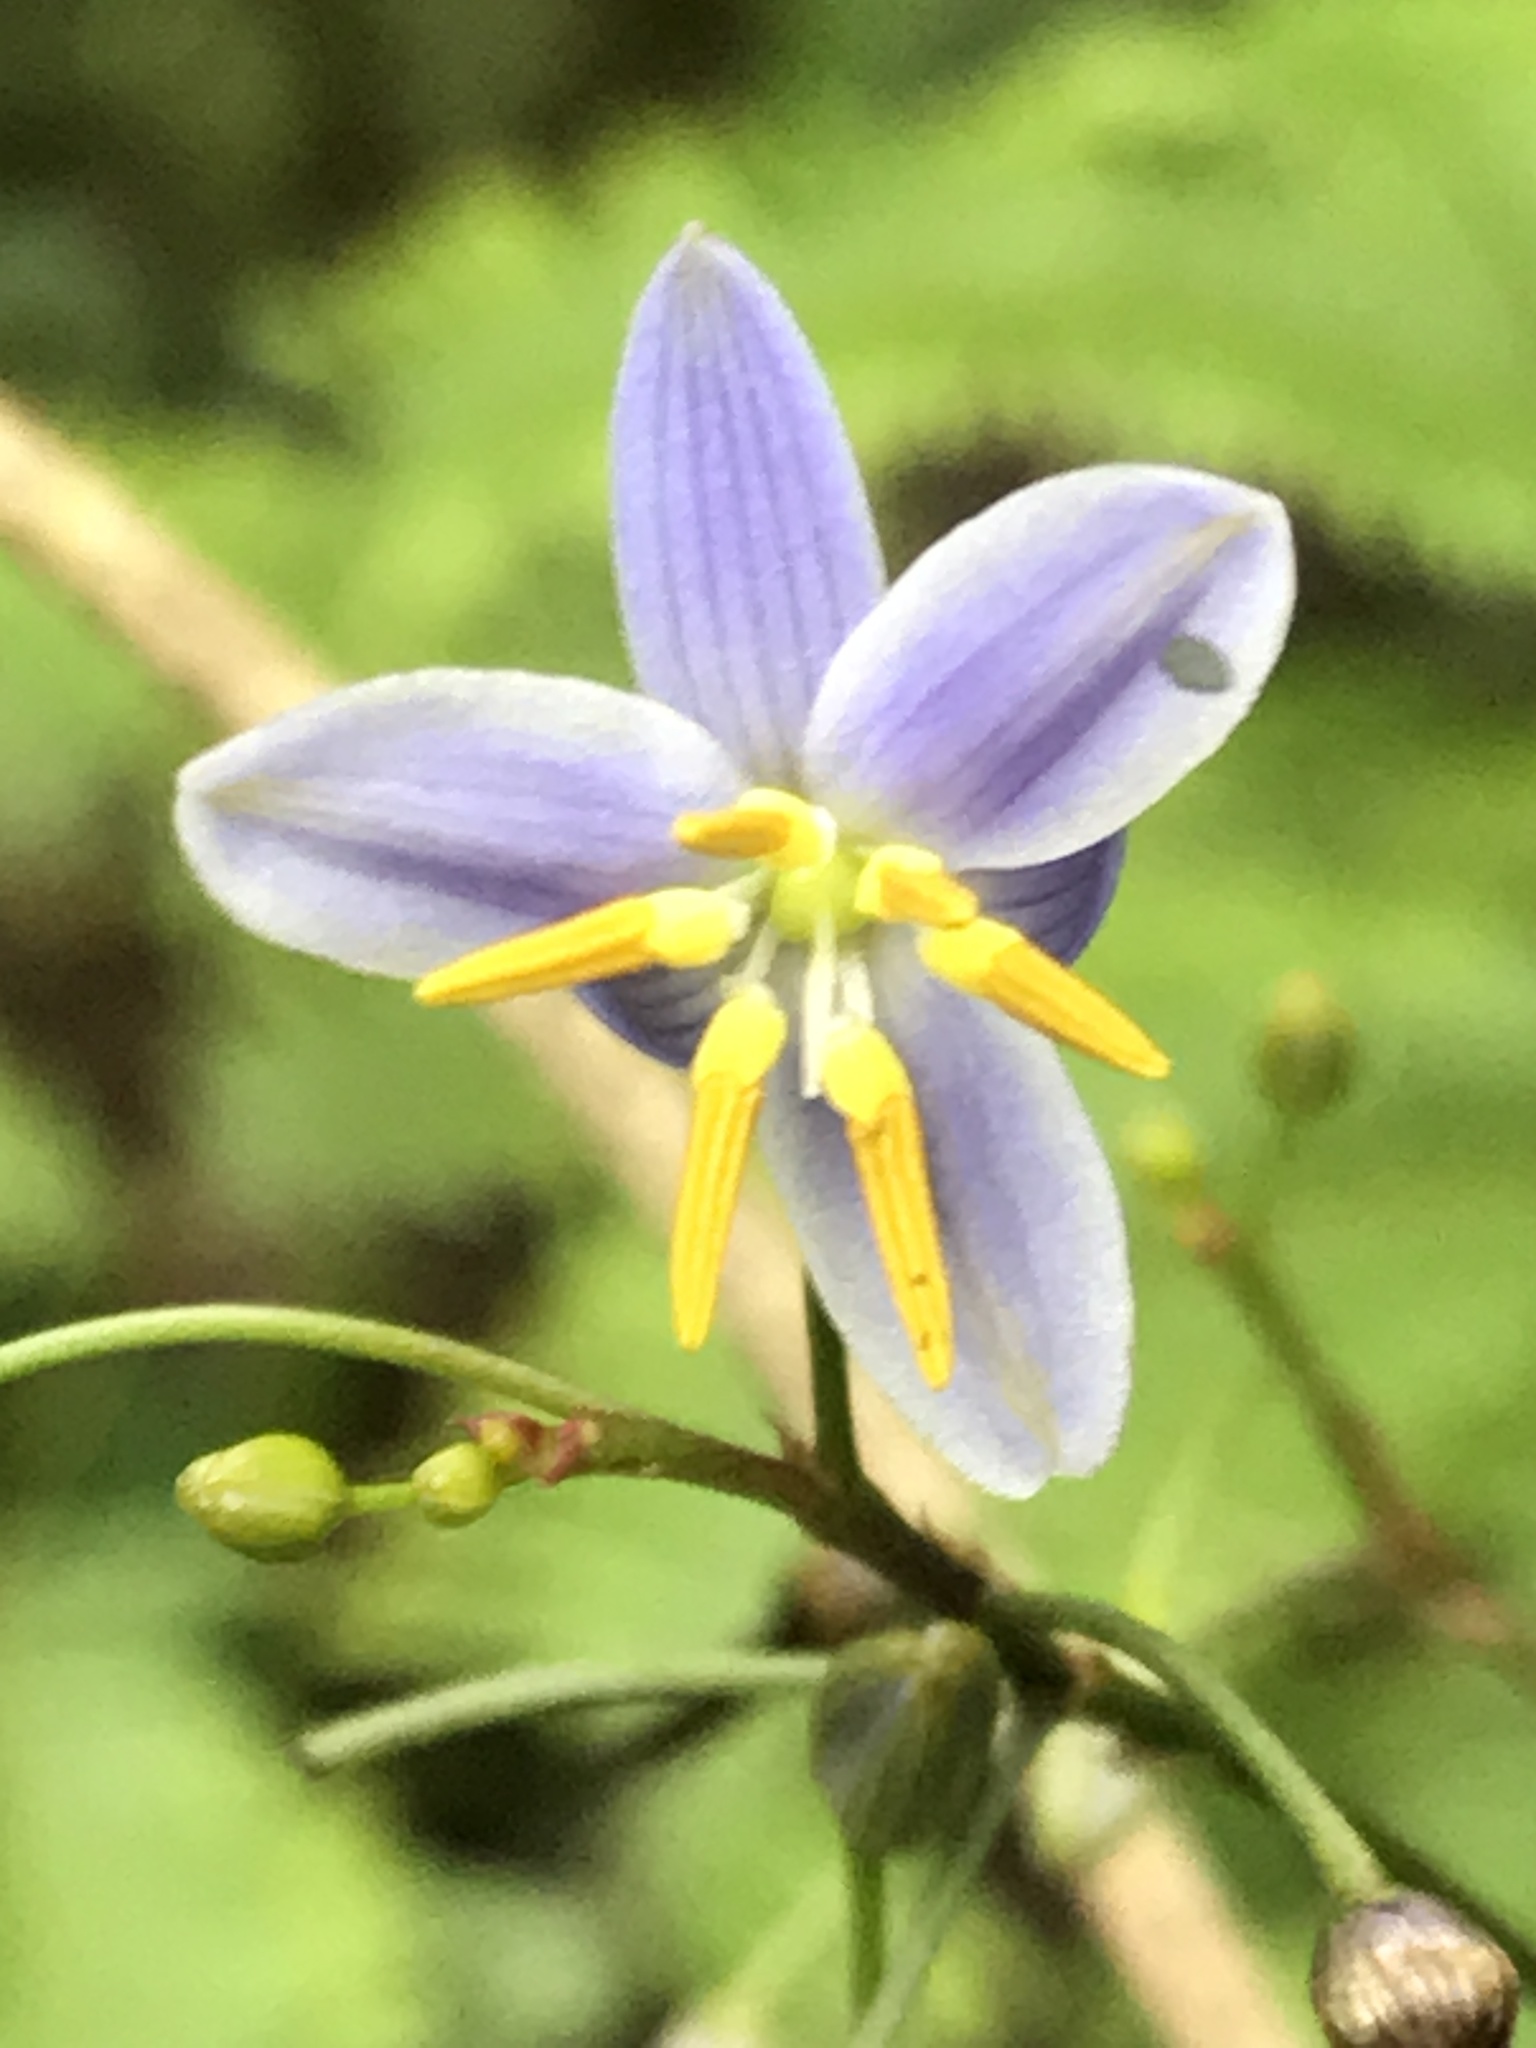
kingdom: Plantae
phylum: Tracheophyta
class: Liliopsida
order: Asparagales
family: Asphodelaceae
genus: Dianella
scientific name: Dianella ensifolia
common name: New zealand lilyplant
